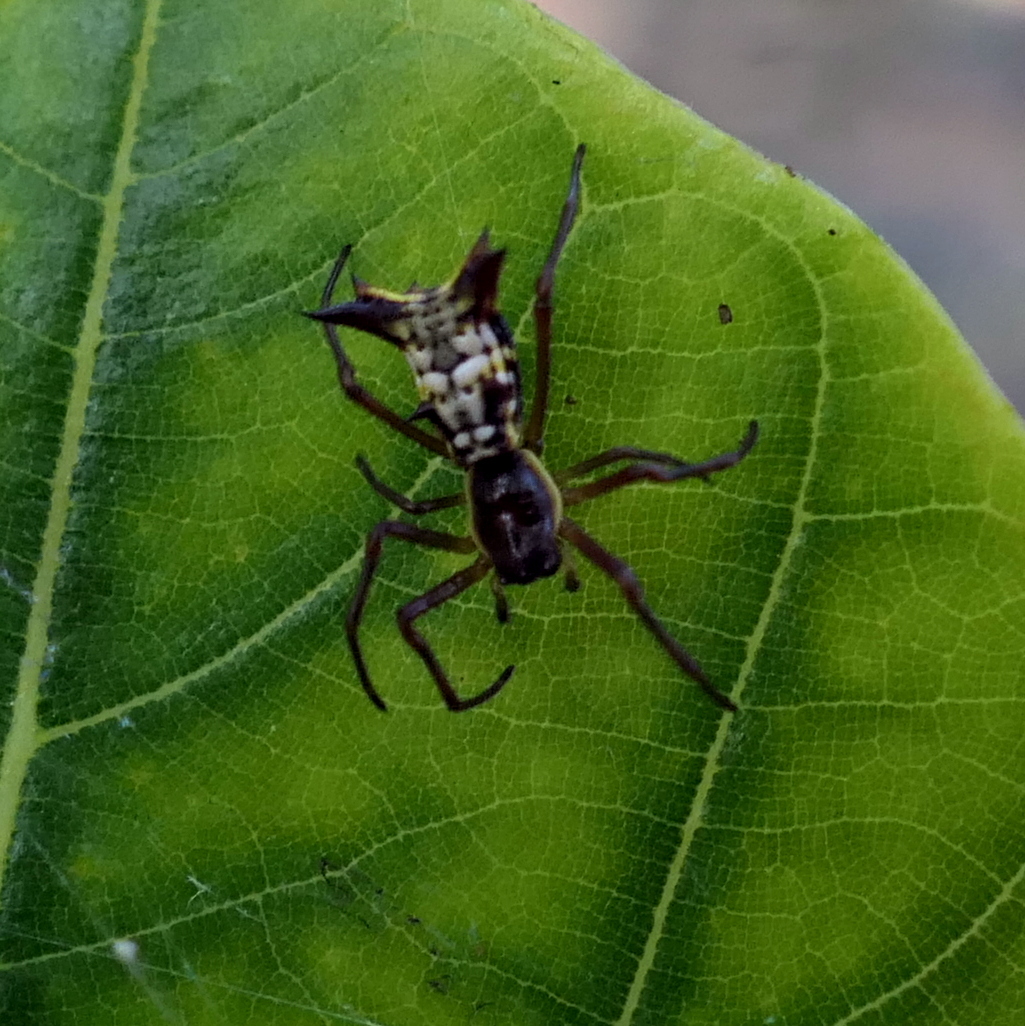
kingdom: Animalia
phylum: Arthropoda
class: Arachnida
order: Araneae
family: Araneidae
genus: Micrathena
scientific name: Micrathena fissispina
